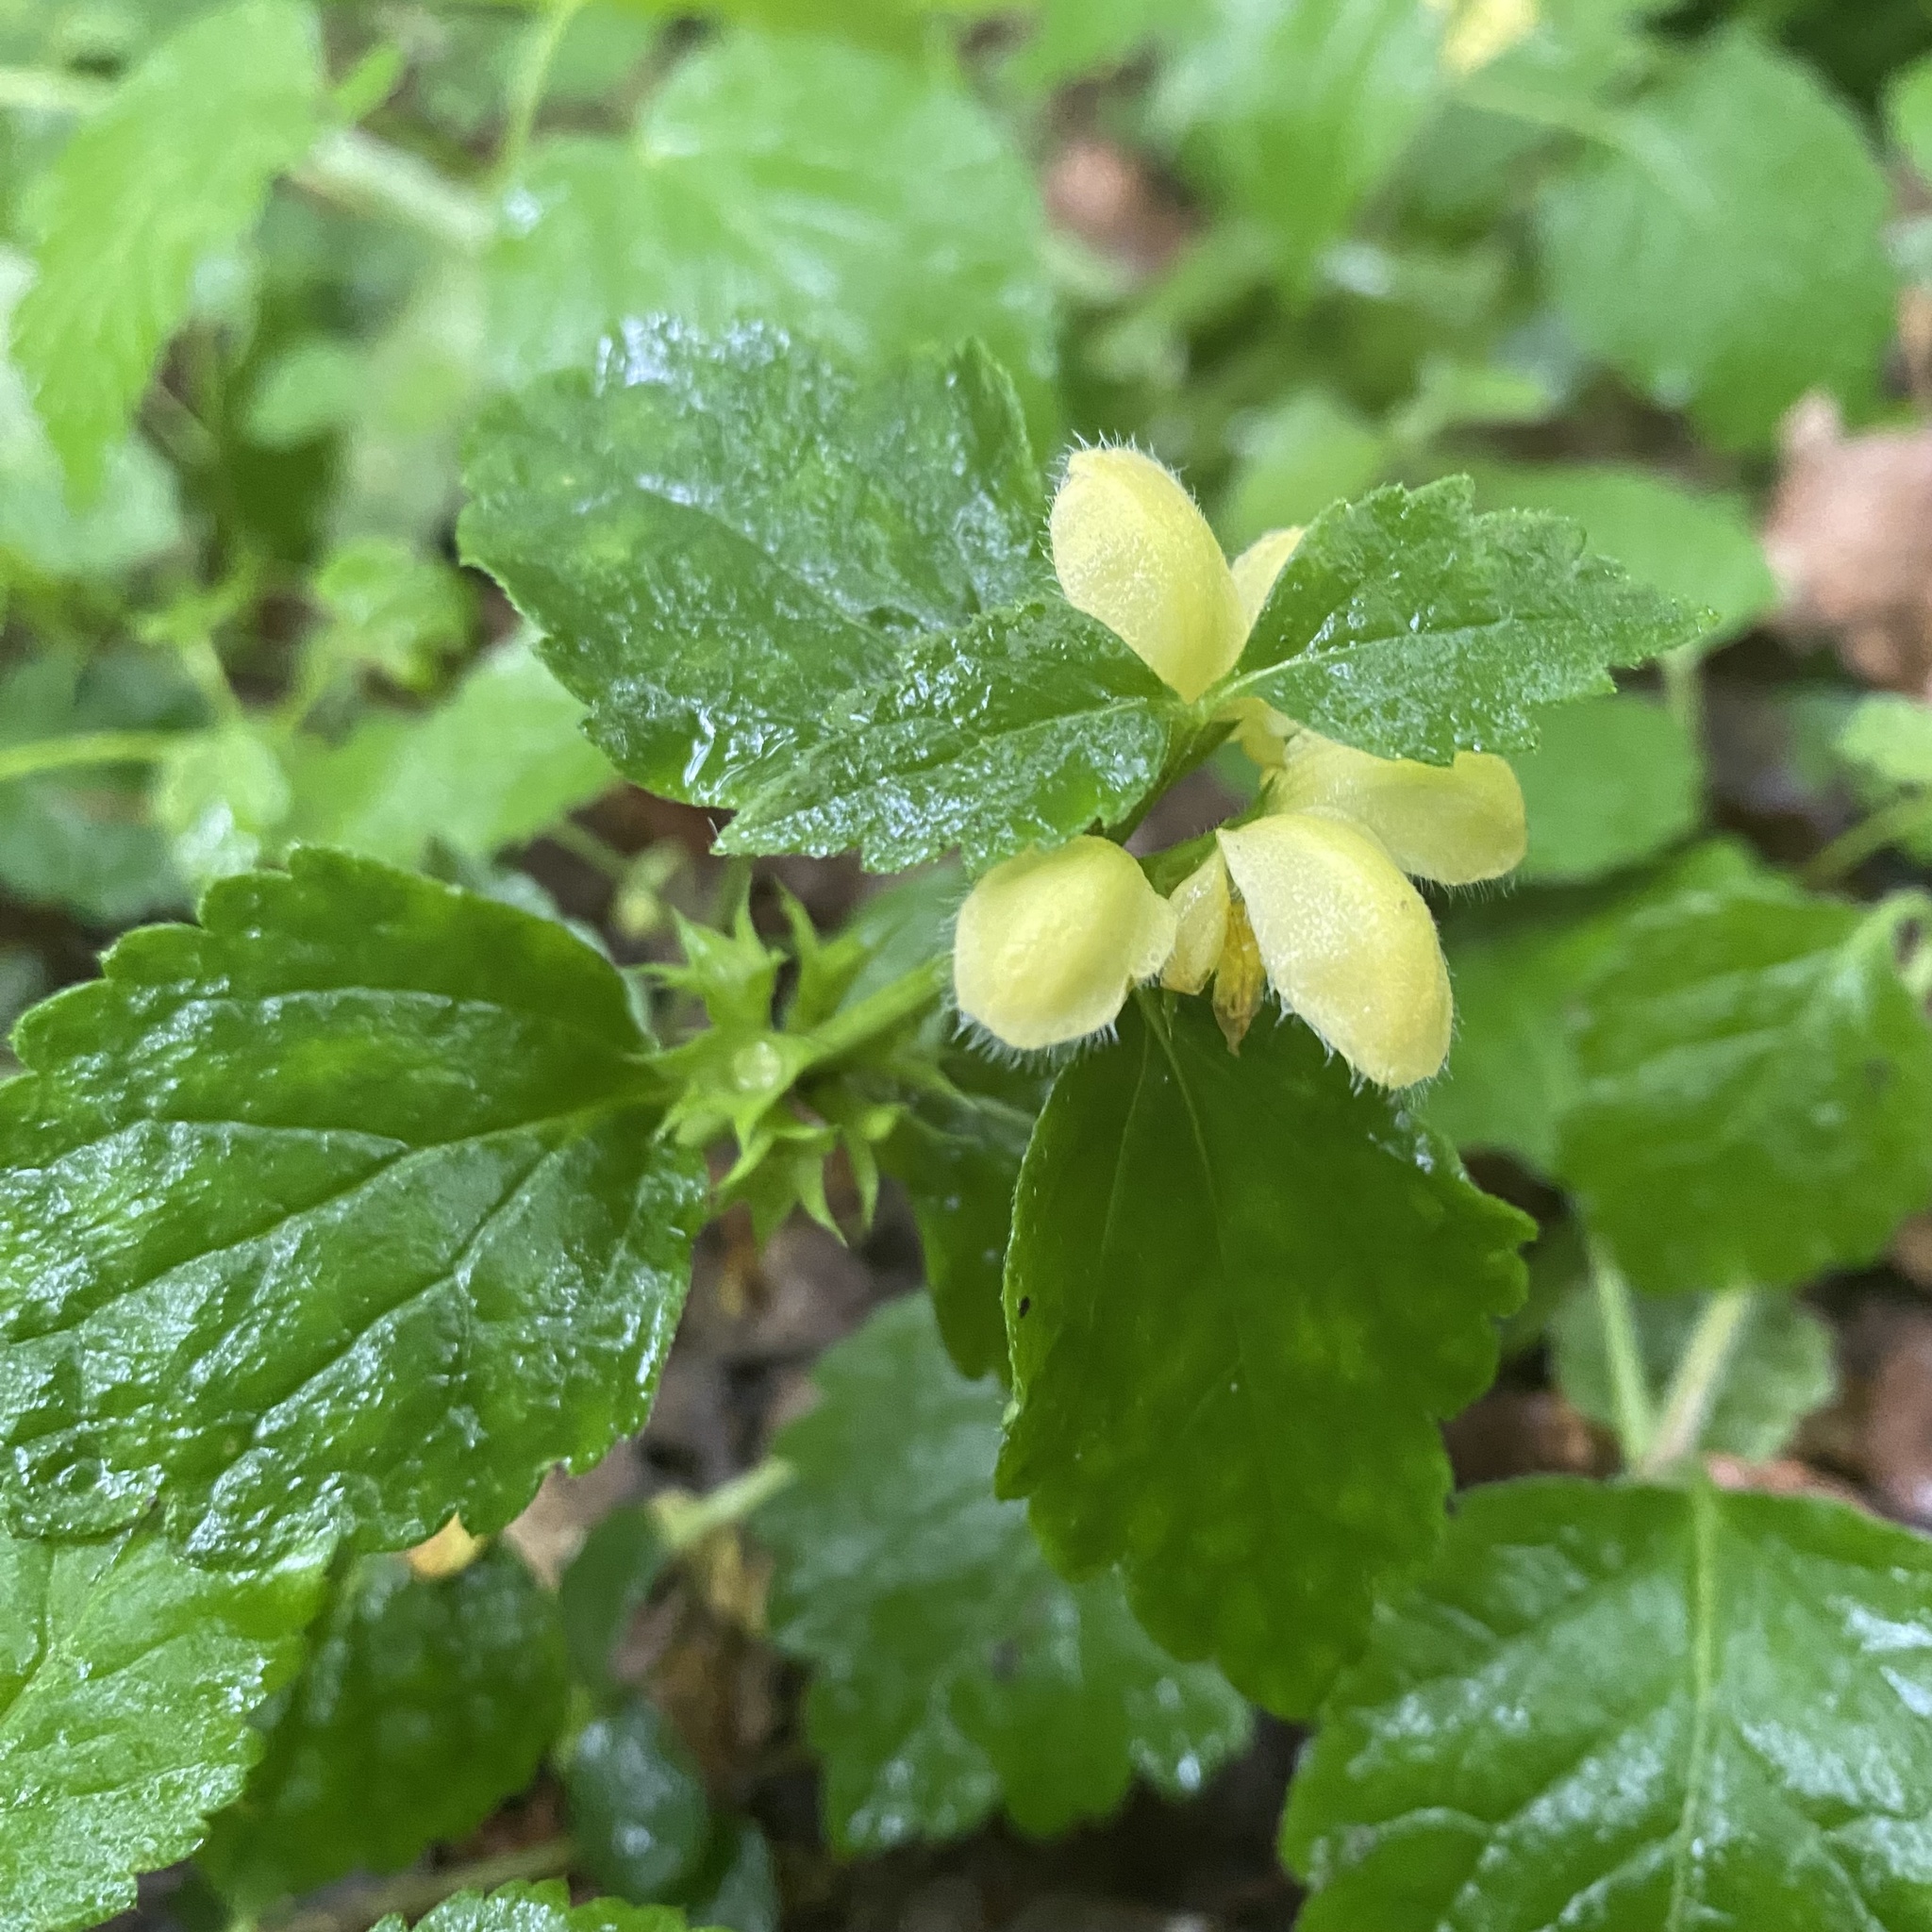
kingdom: Plantae
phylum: Tracheophyta
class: Magnoliopsida
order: Lamiales
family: Lamiaceae
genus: Lamium
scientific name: Lamium galeobdolon
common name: Yellow archangel
